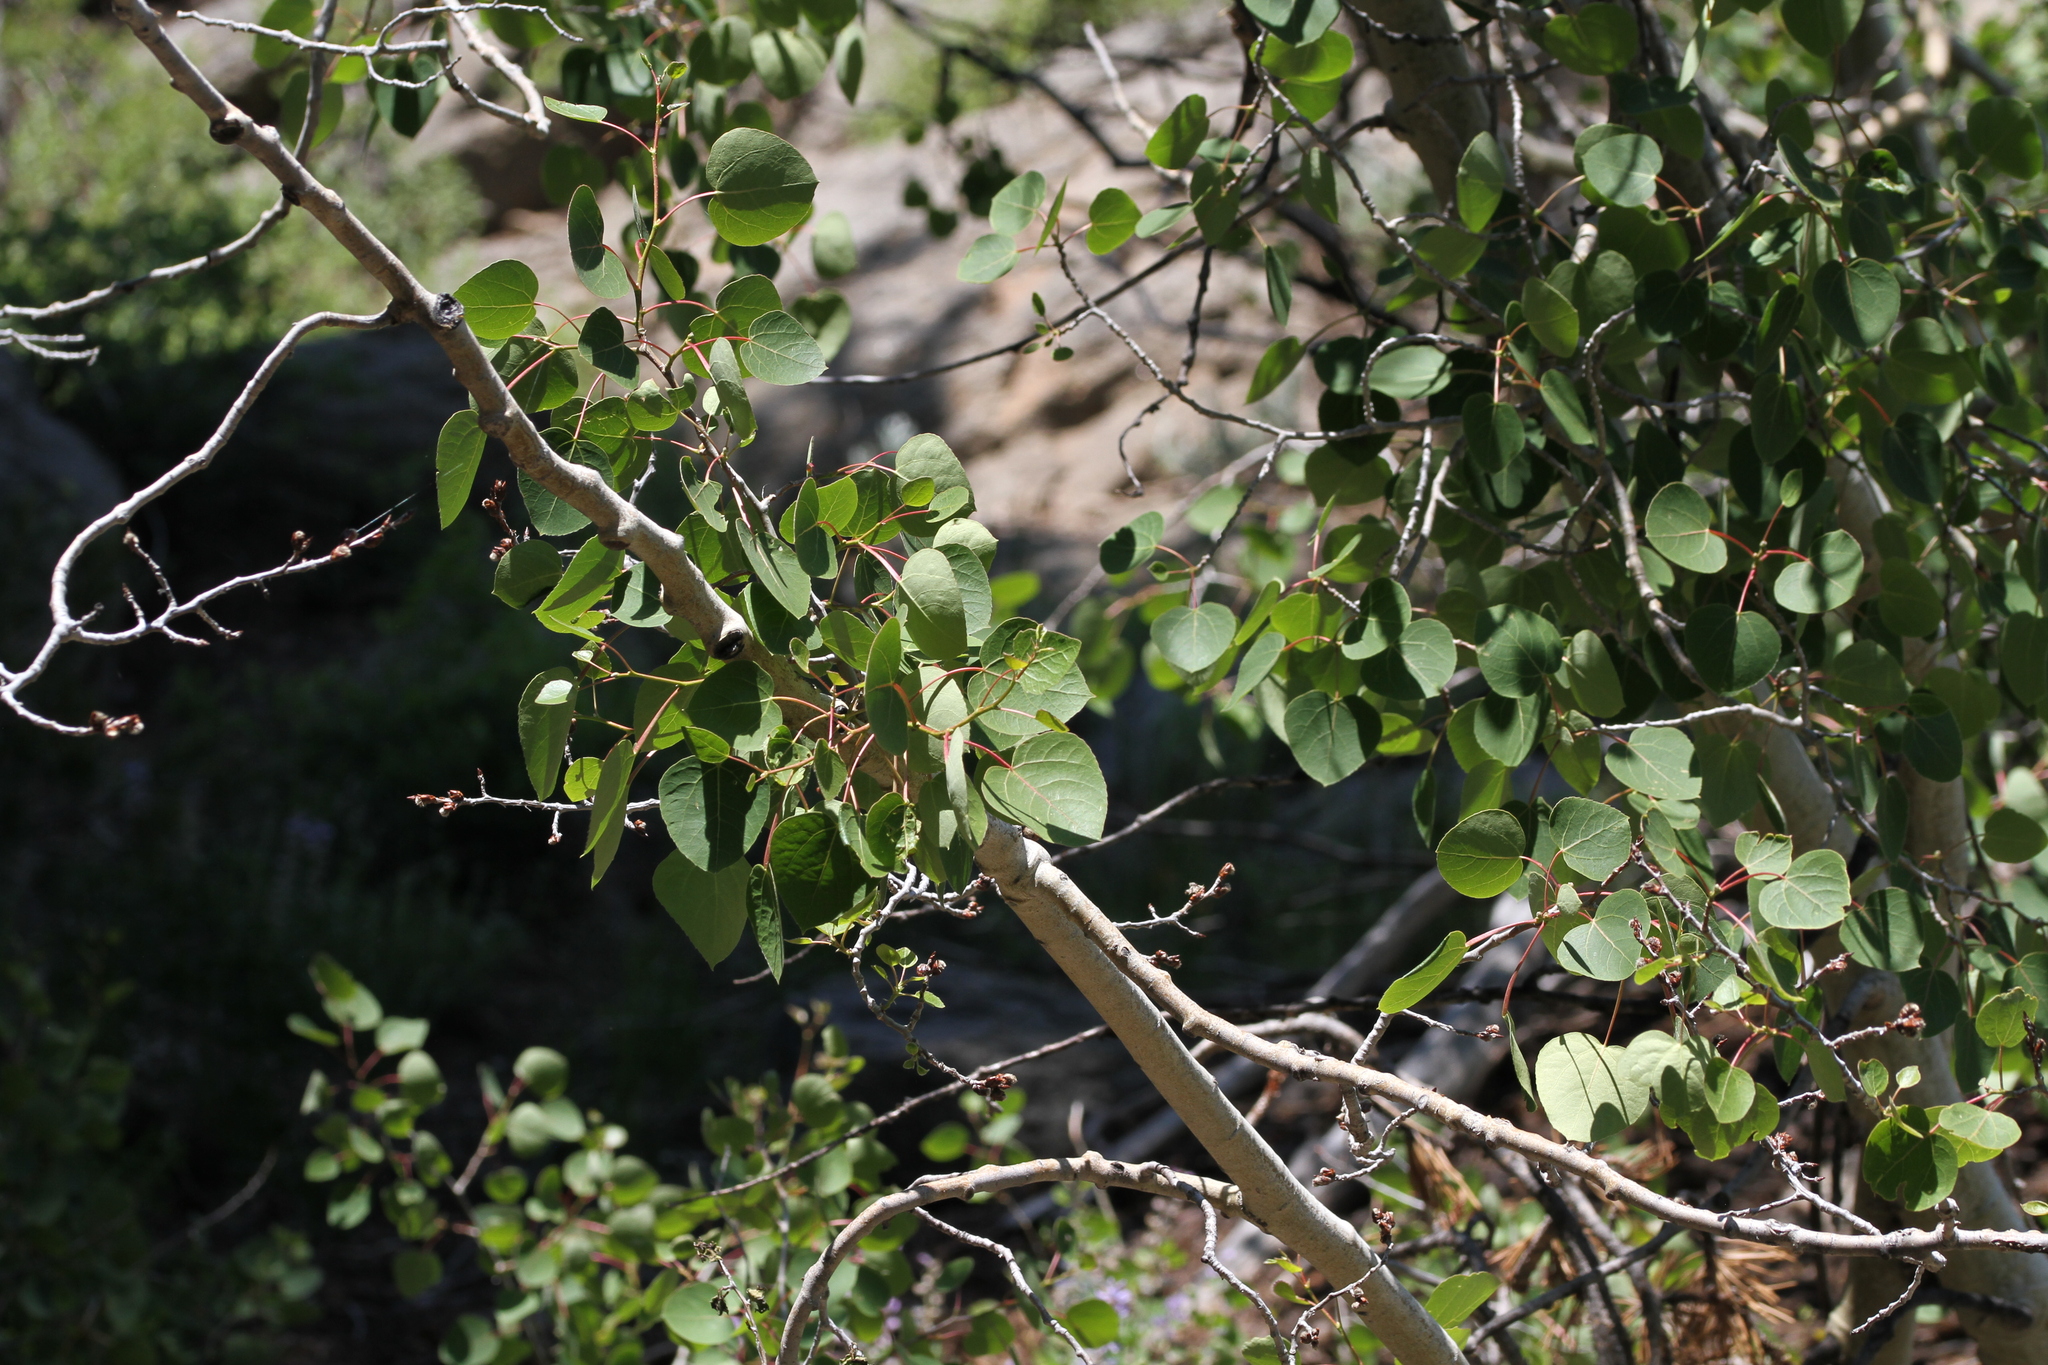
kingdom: Plantae
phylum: Tracheophyta
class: Magnoliopsida
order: Malpighiales
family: Salicaceae
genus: Populus
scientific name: Populus tremuloides
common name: Quaking aspen
